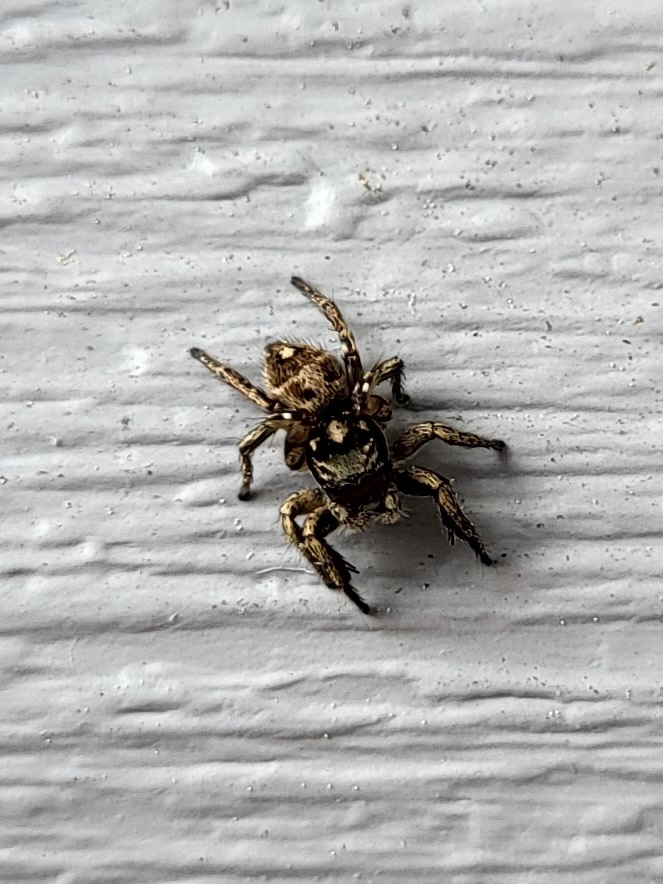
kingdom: Animalia
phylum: Arthropoda
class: Arachnida
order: Araneae
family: Salticidae
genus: Habronattus
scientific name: Habronattus coecatus
